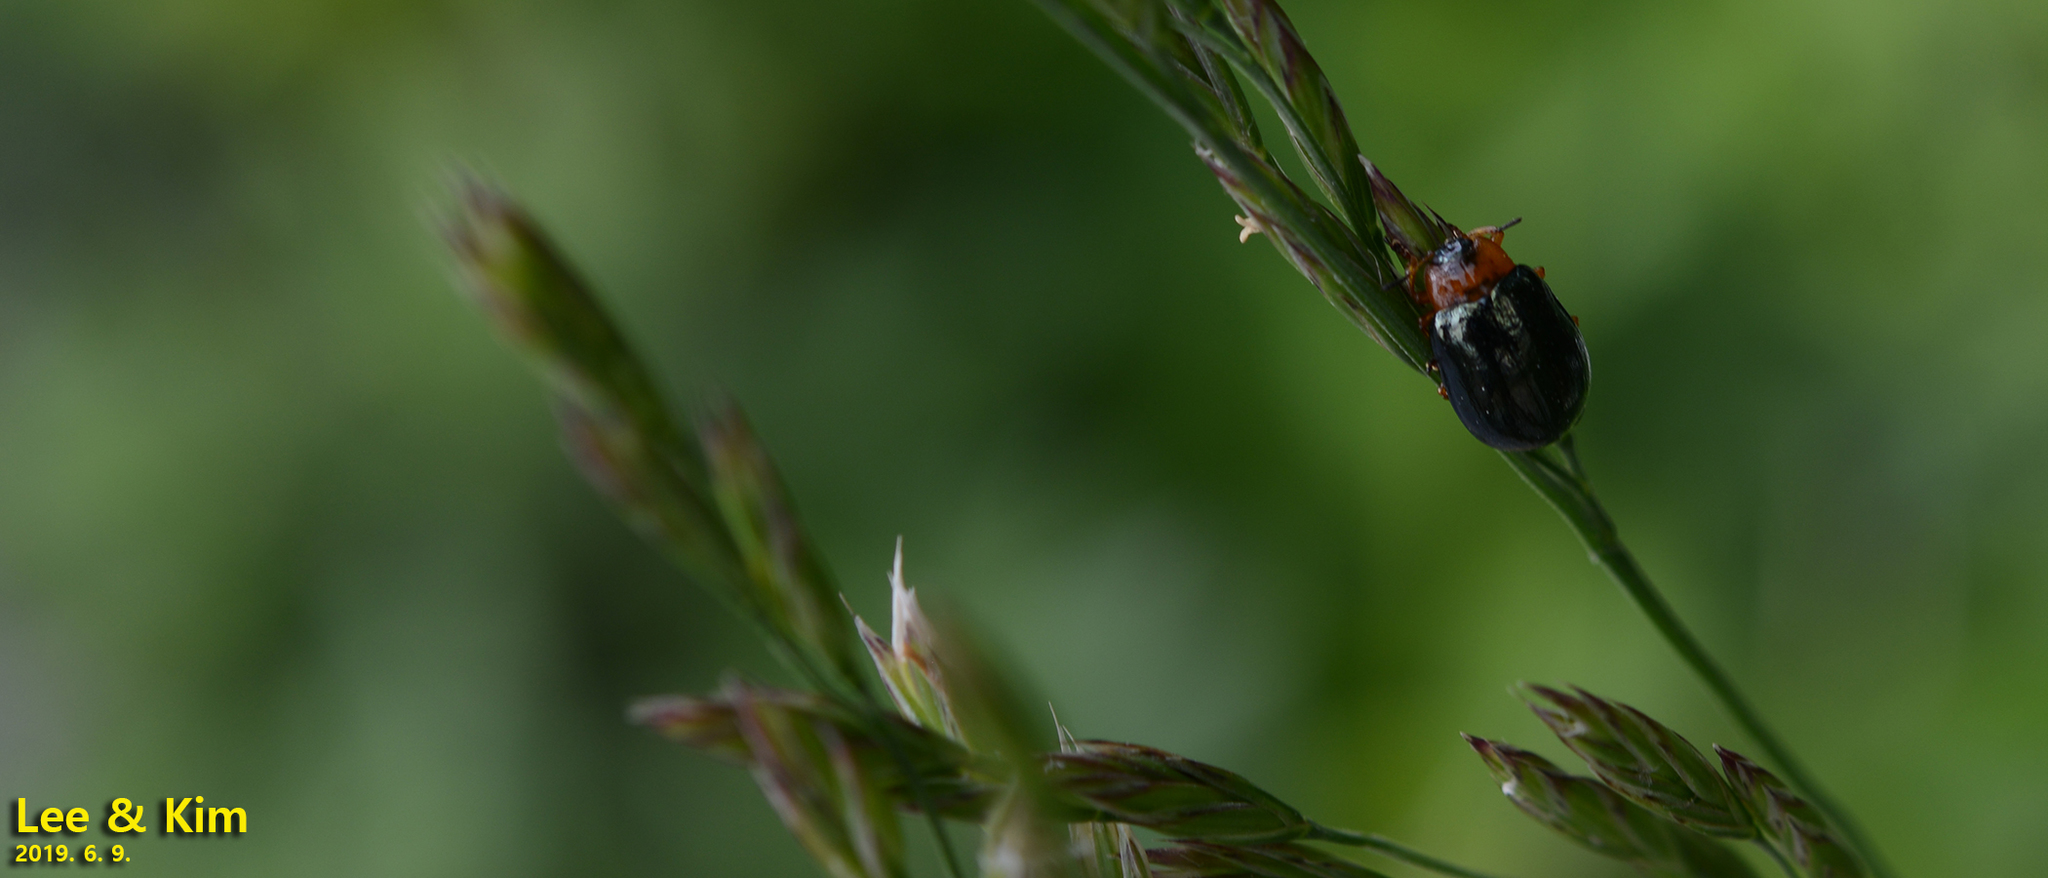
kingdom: Animalia
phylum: Arthropoda
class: Insecta
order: Coleoptera
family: Chrysomelidae
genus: Plagiosterna
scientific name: Plagiosterna adamsii
